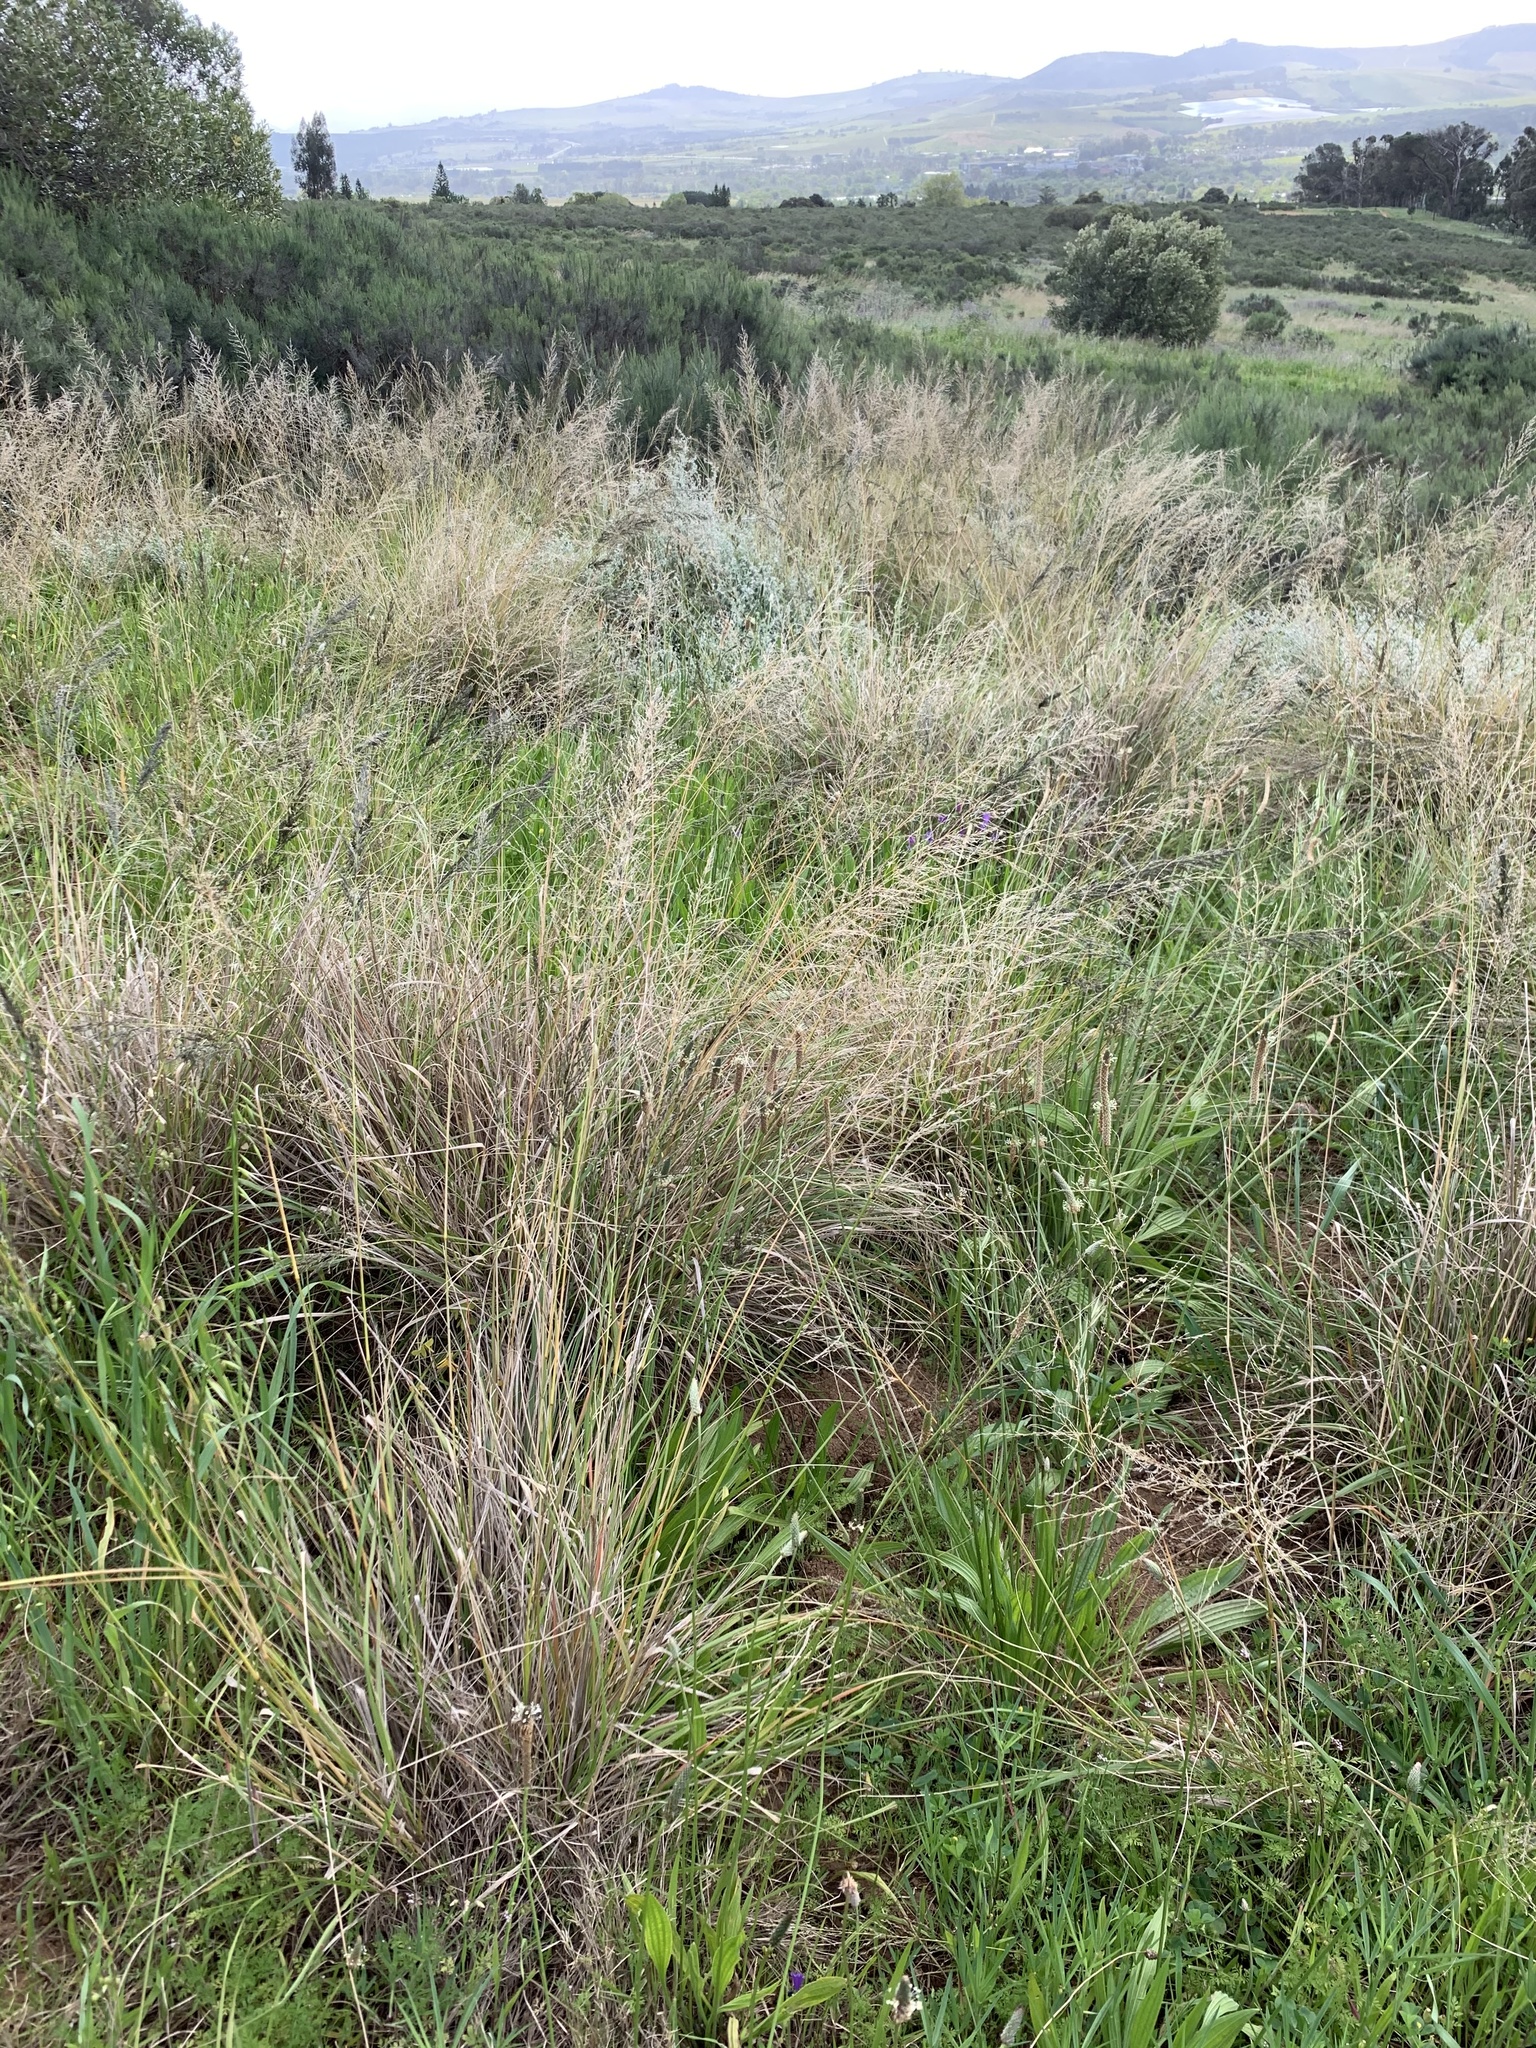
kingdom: Plantae
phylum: Tracheophyta
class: Liliopsida
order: Poales
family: Poaceae
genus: Eragrostis
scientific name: Eragrostis curvula
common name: African love-grass
